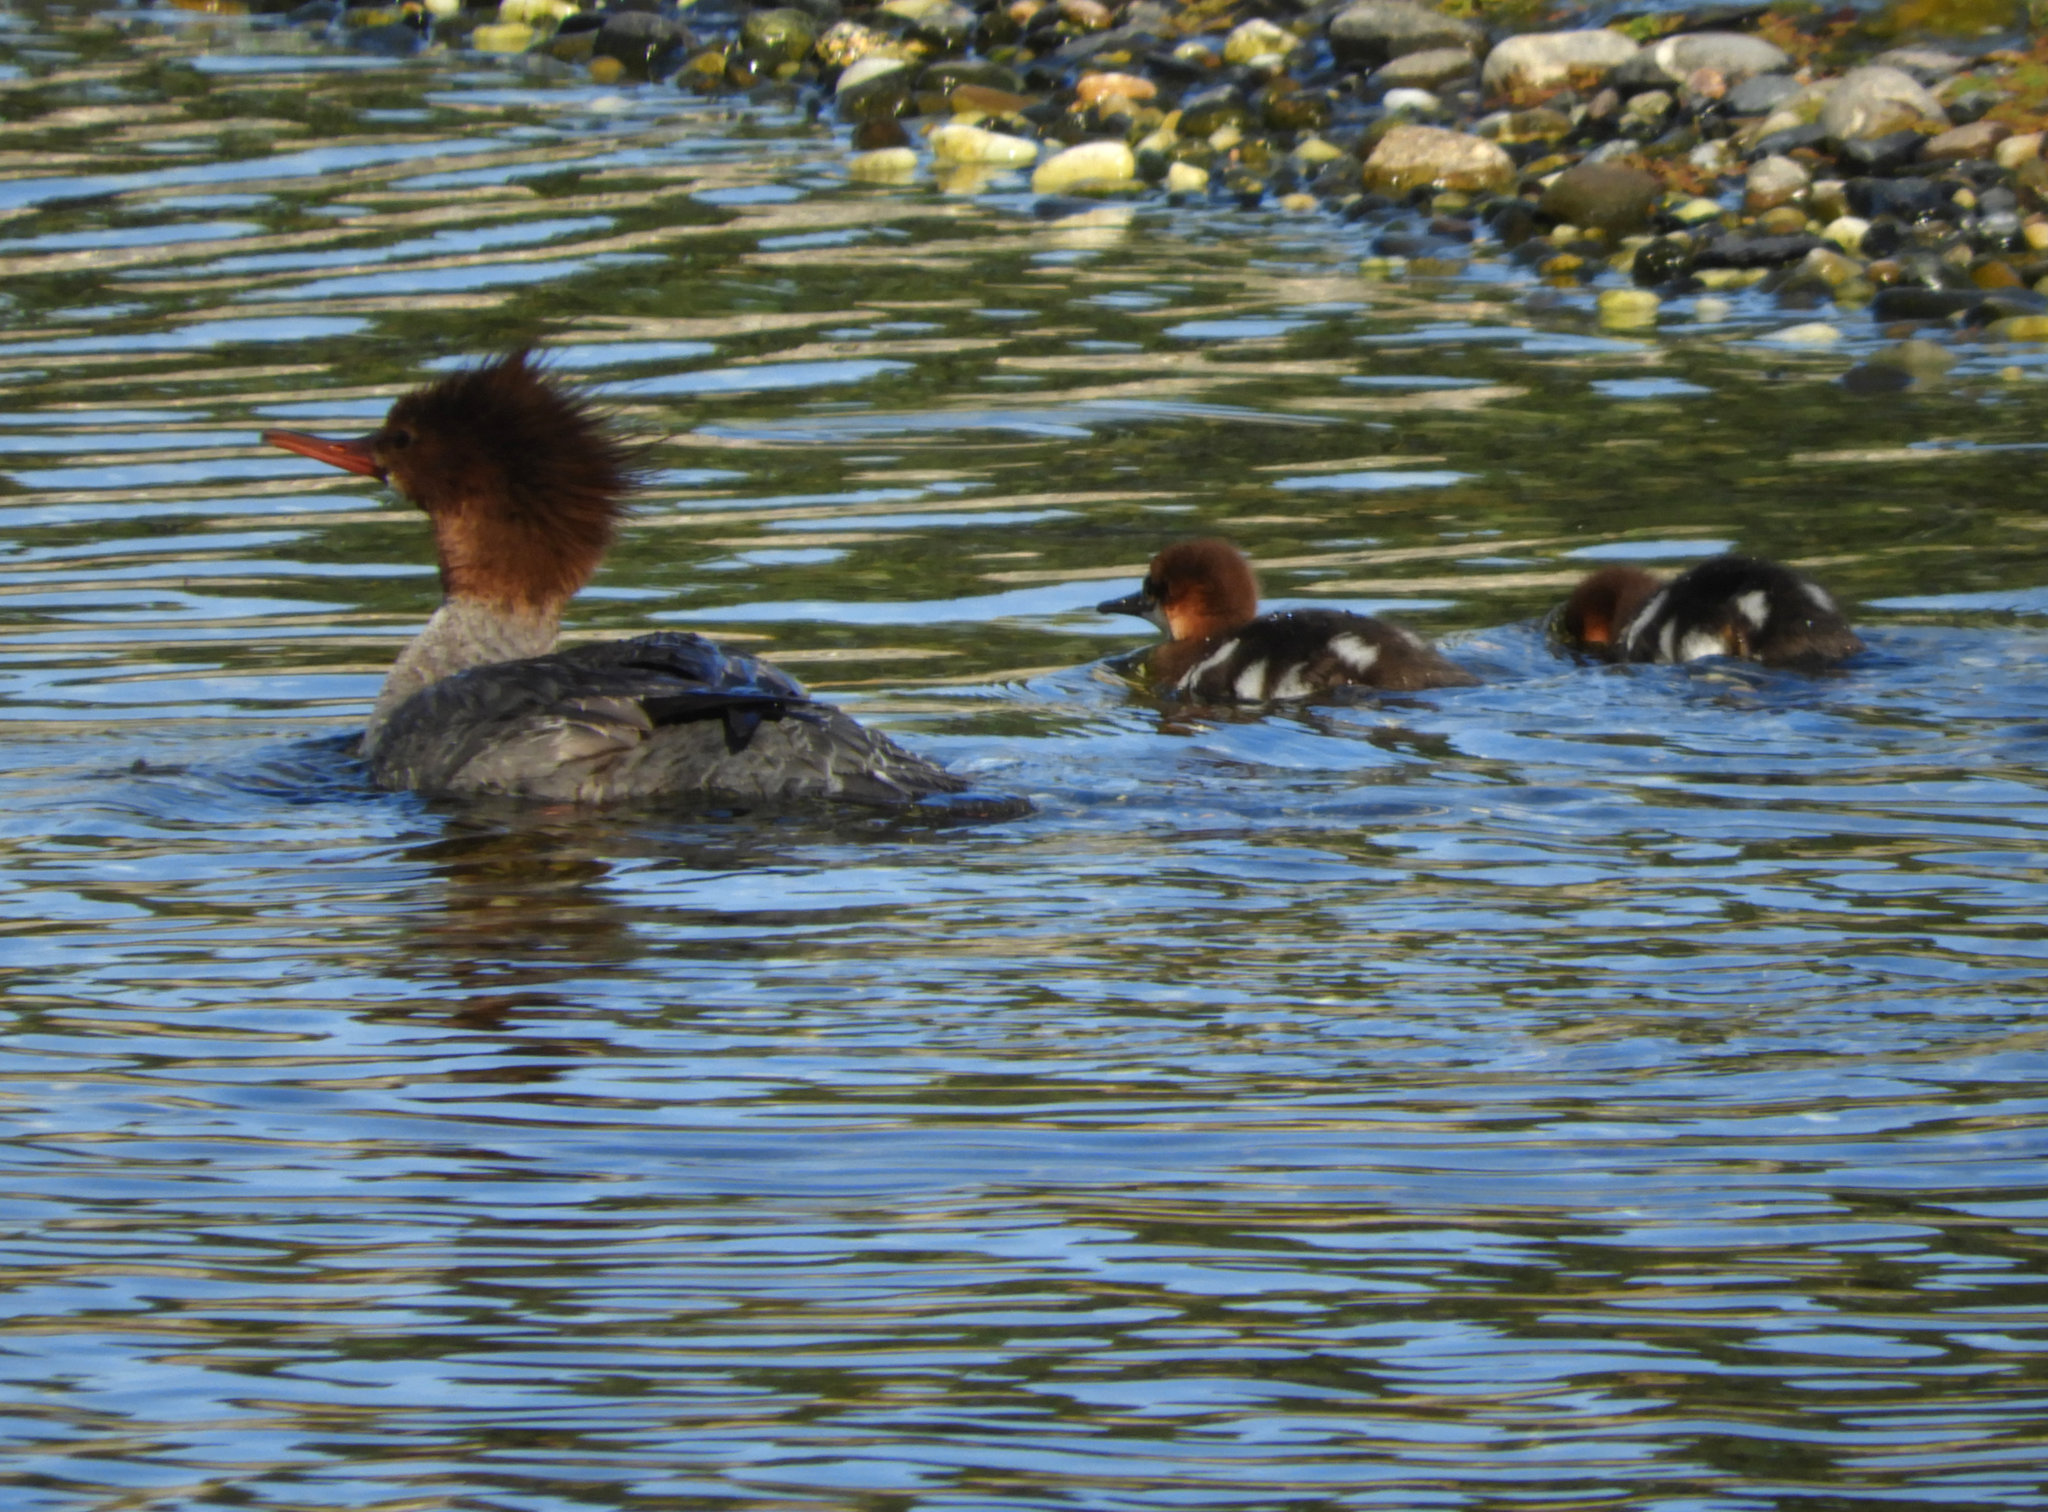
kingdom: Animalia
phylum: Chordata
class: Aves
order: Anseriformes
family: Anatidae
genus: Mergus
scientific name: Mergus merganser
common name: Common merganser
